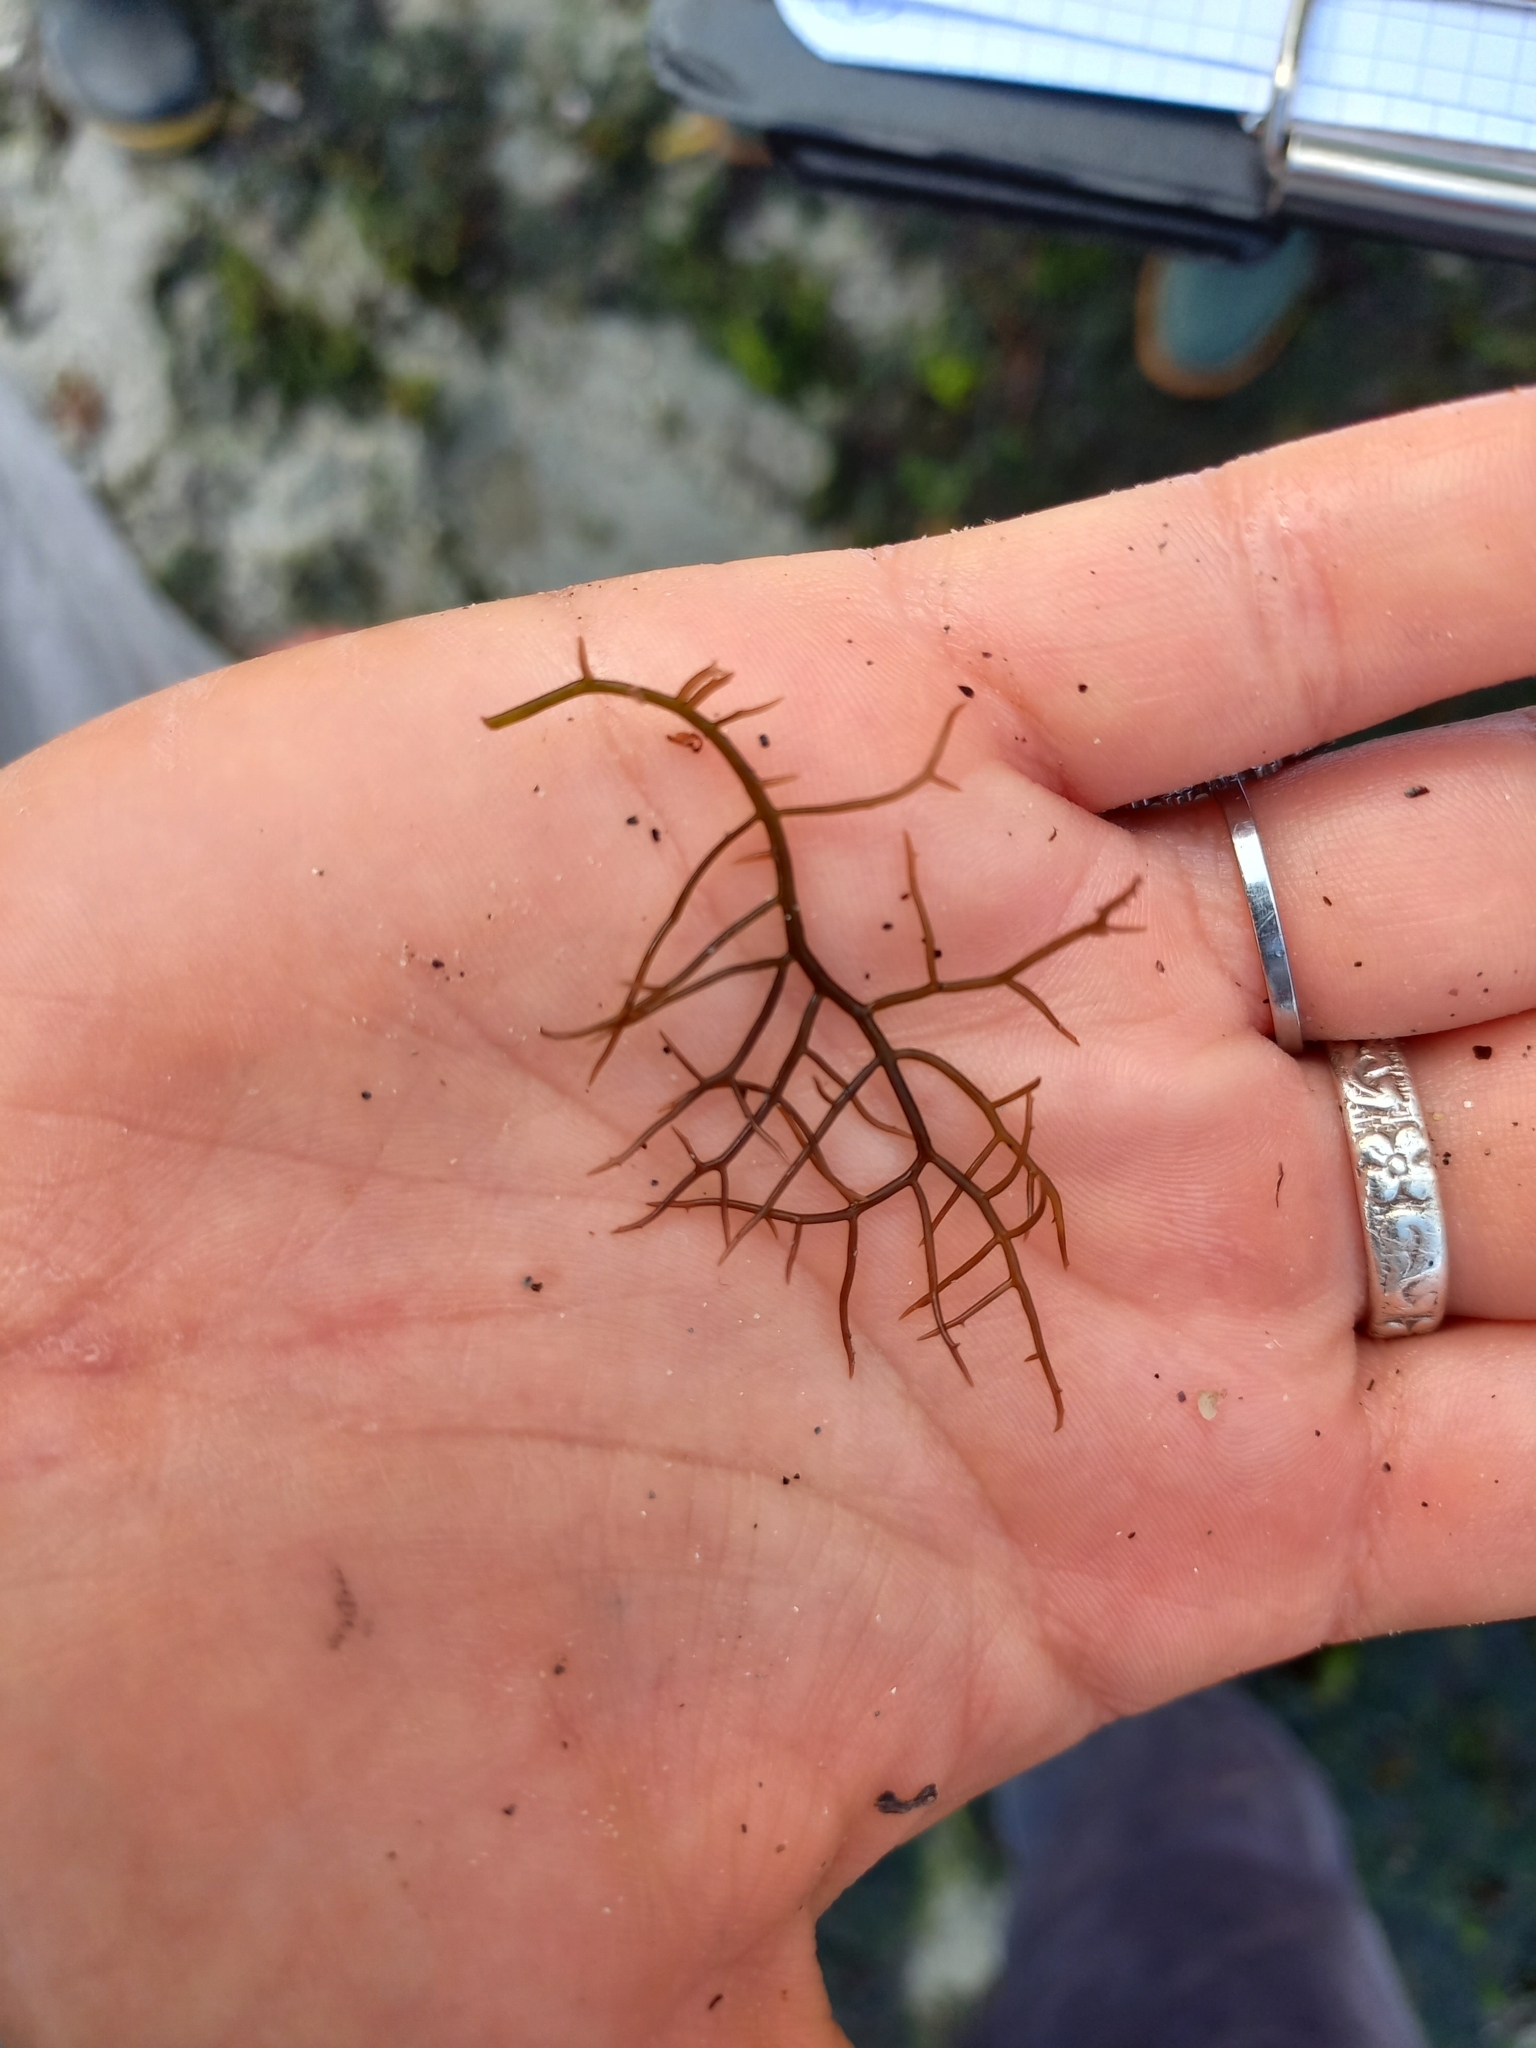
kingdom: Plantae
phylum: Rhodophyta
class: Florideophyceae
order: Gigartinales
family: Gigartinaceae
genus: Chondracanthus
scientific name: Chondracanthus acicularis
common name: Creephorn
